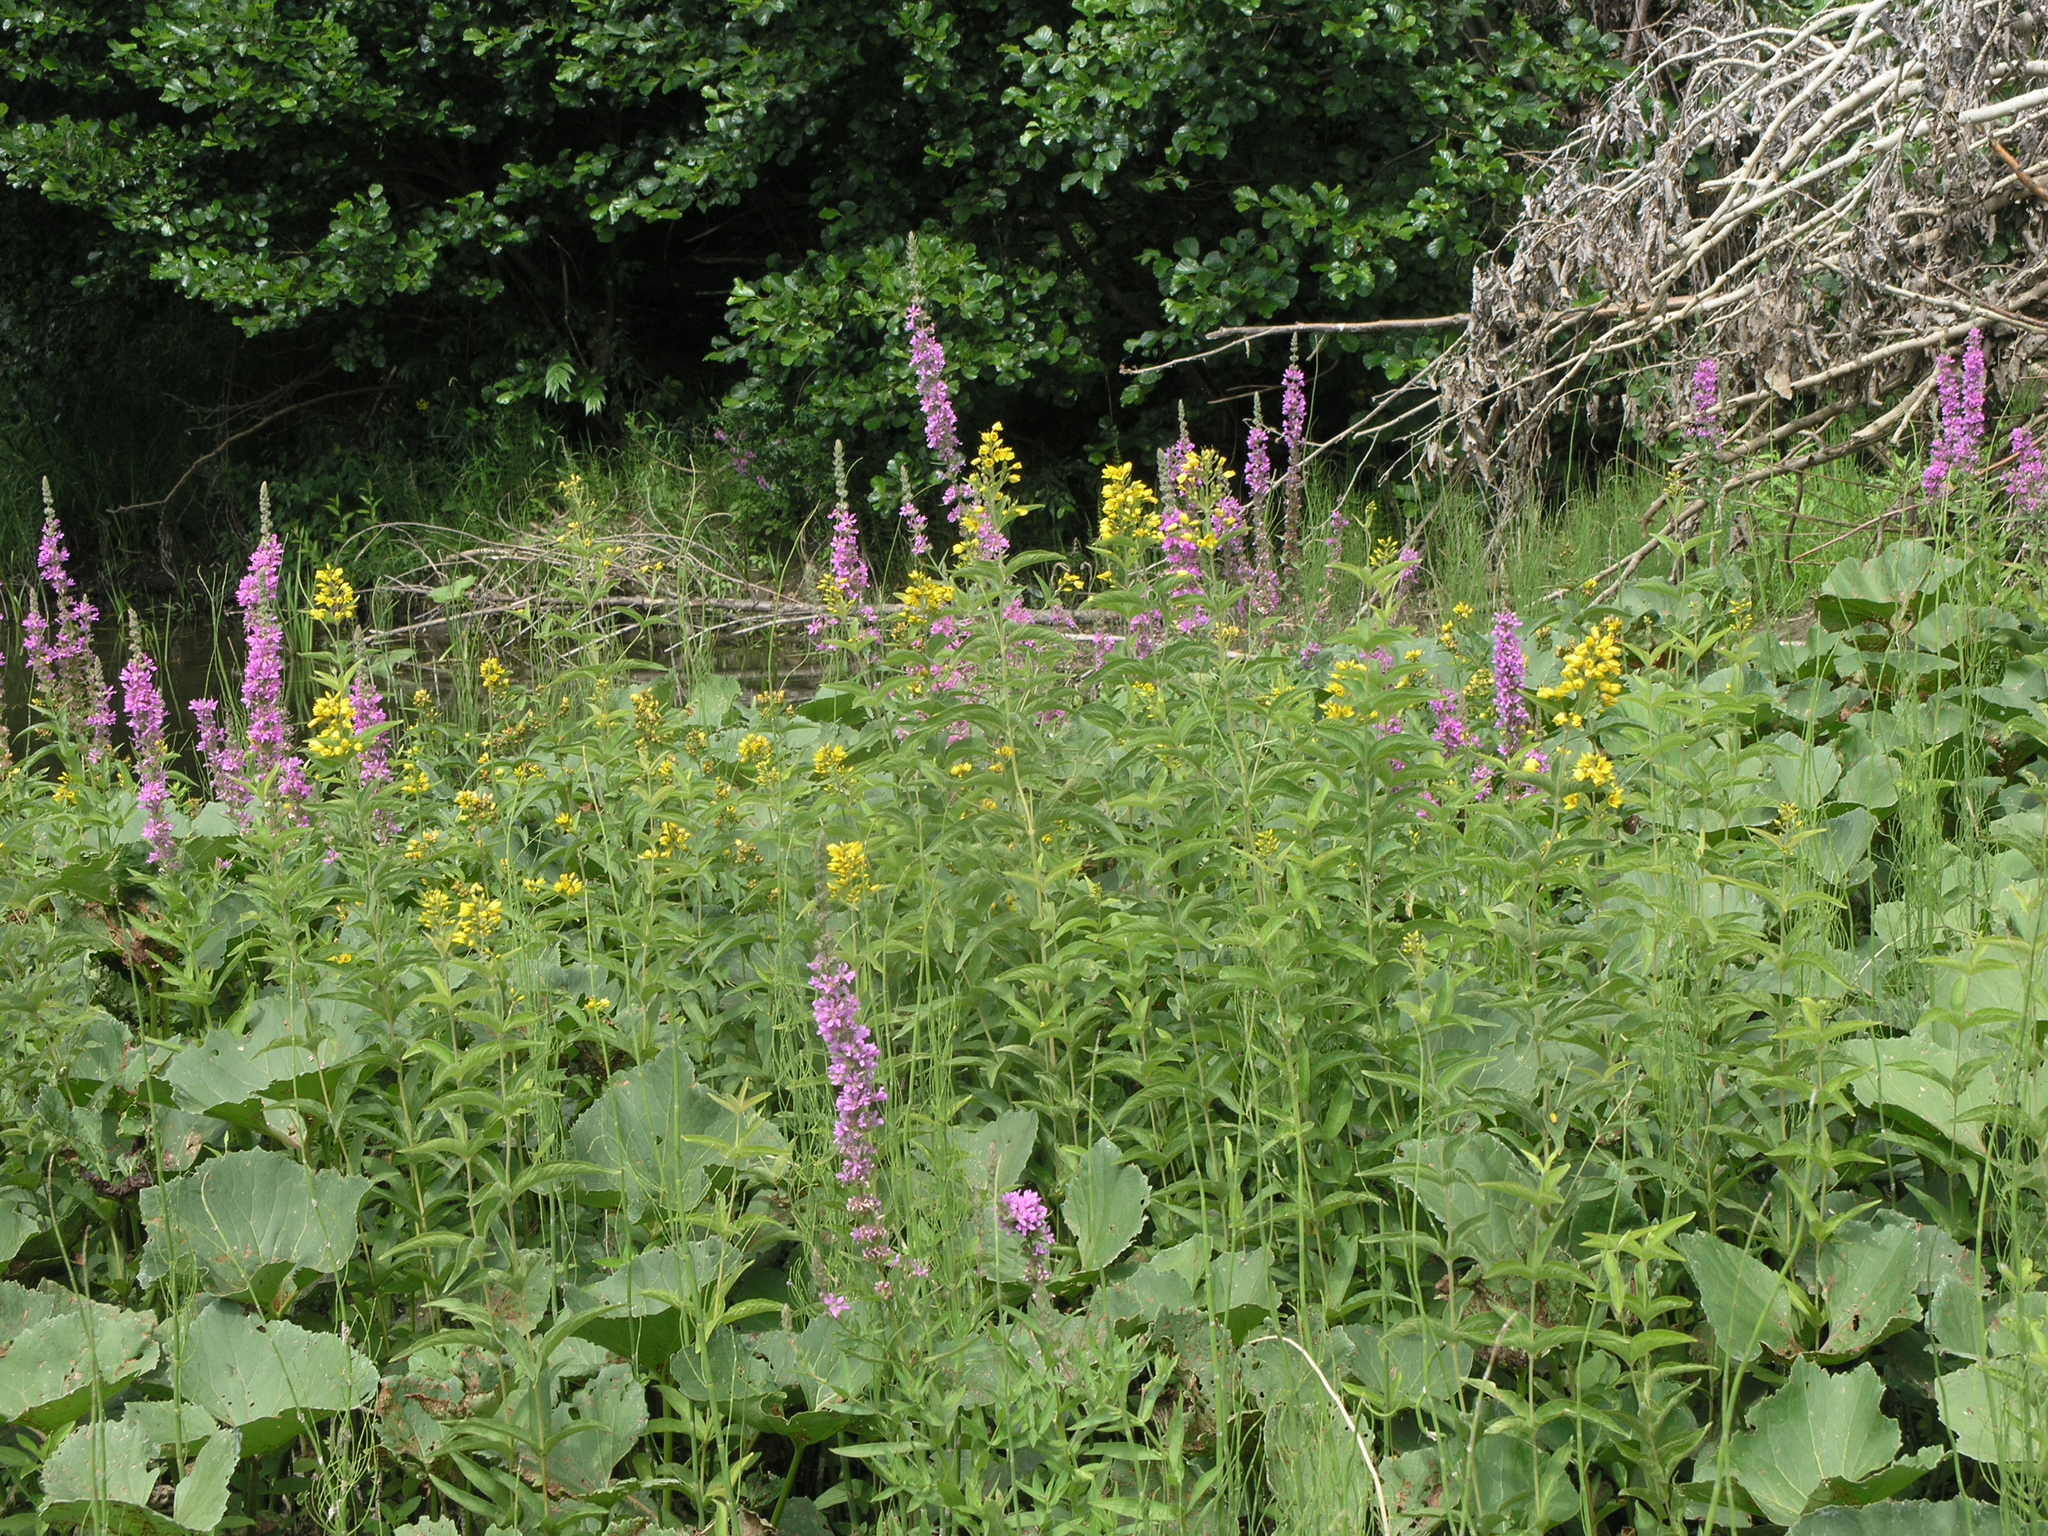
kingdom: Plantae
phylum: Tracheophyta
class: Magnoliopsida
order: Myrtales
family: Lythraceae
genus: Lythrum
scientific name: Lythrum salicaria
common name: Purple loosestrife
